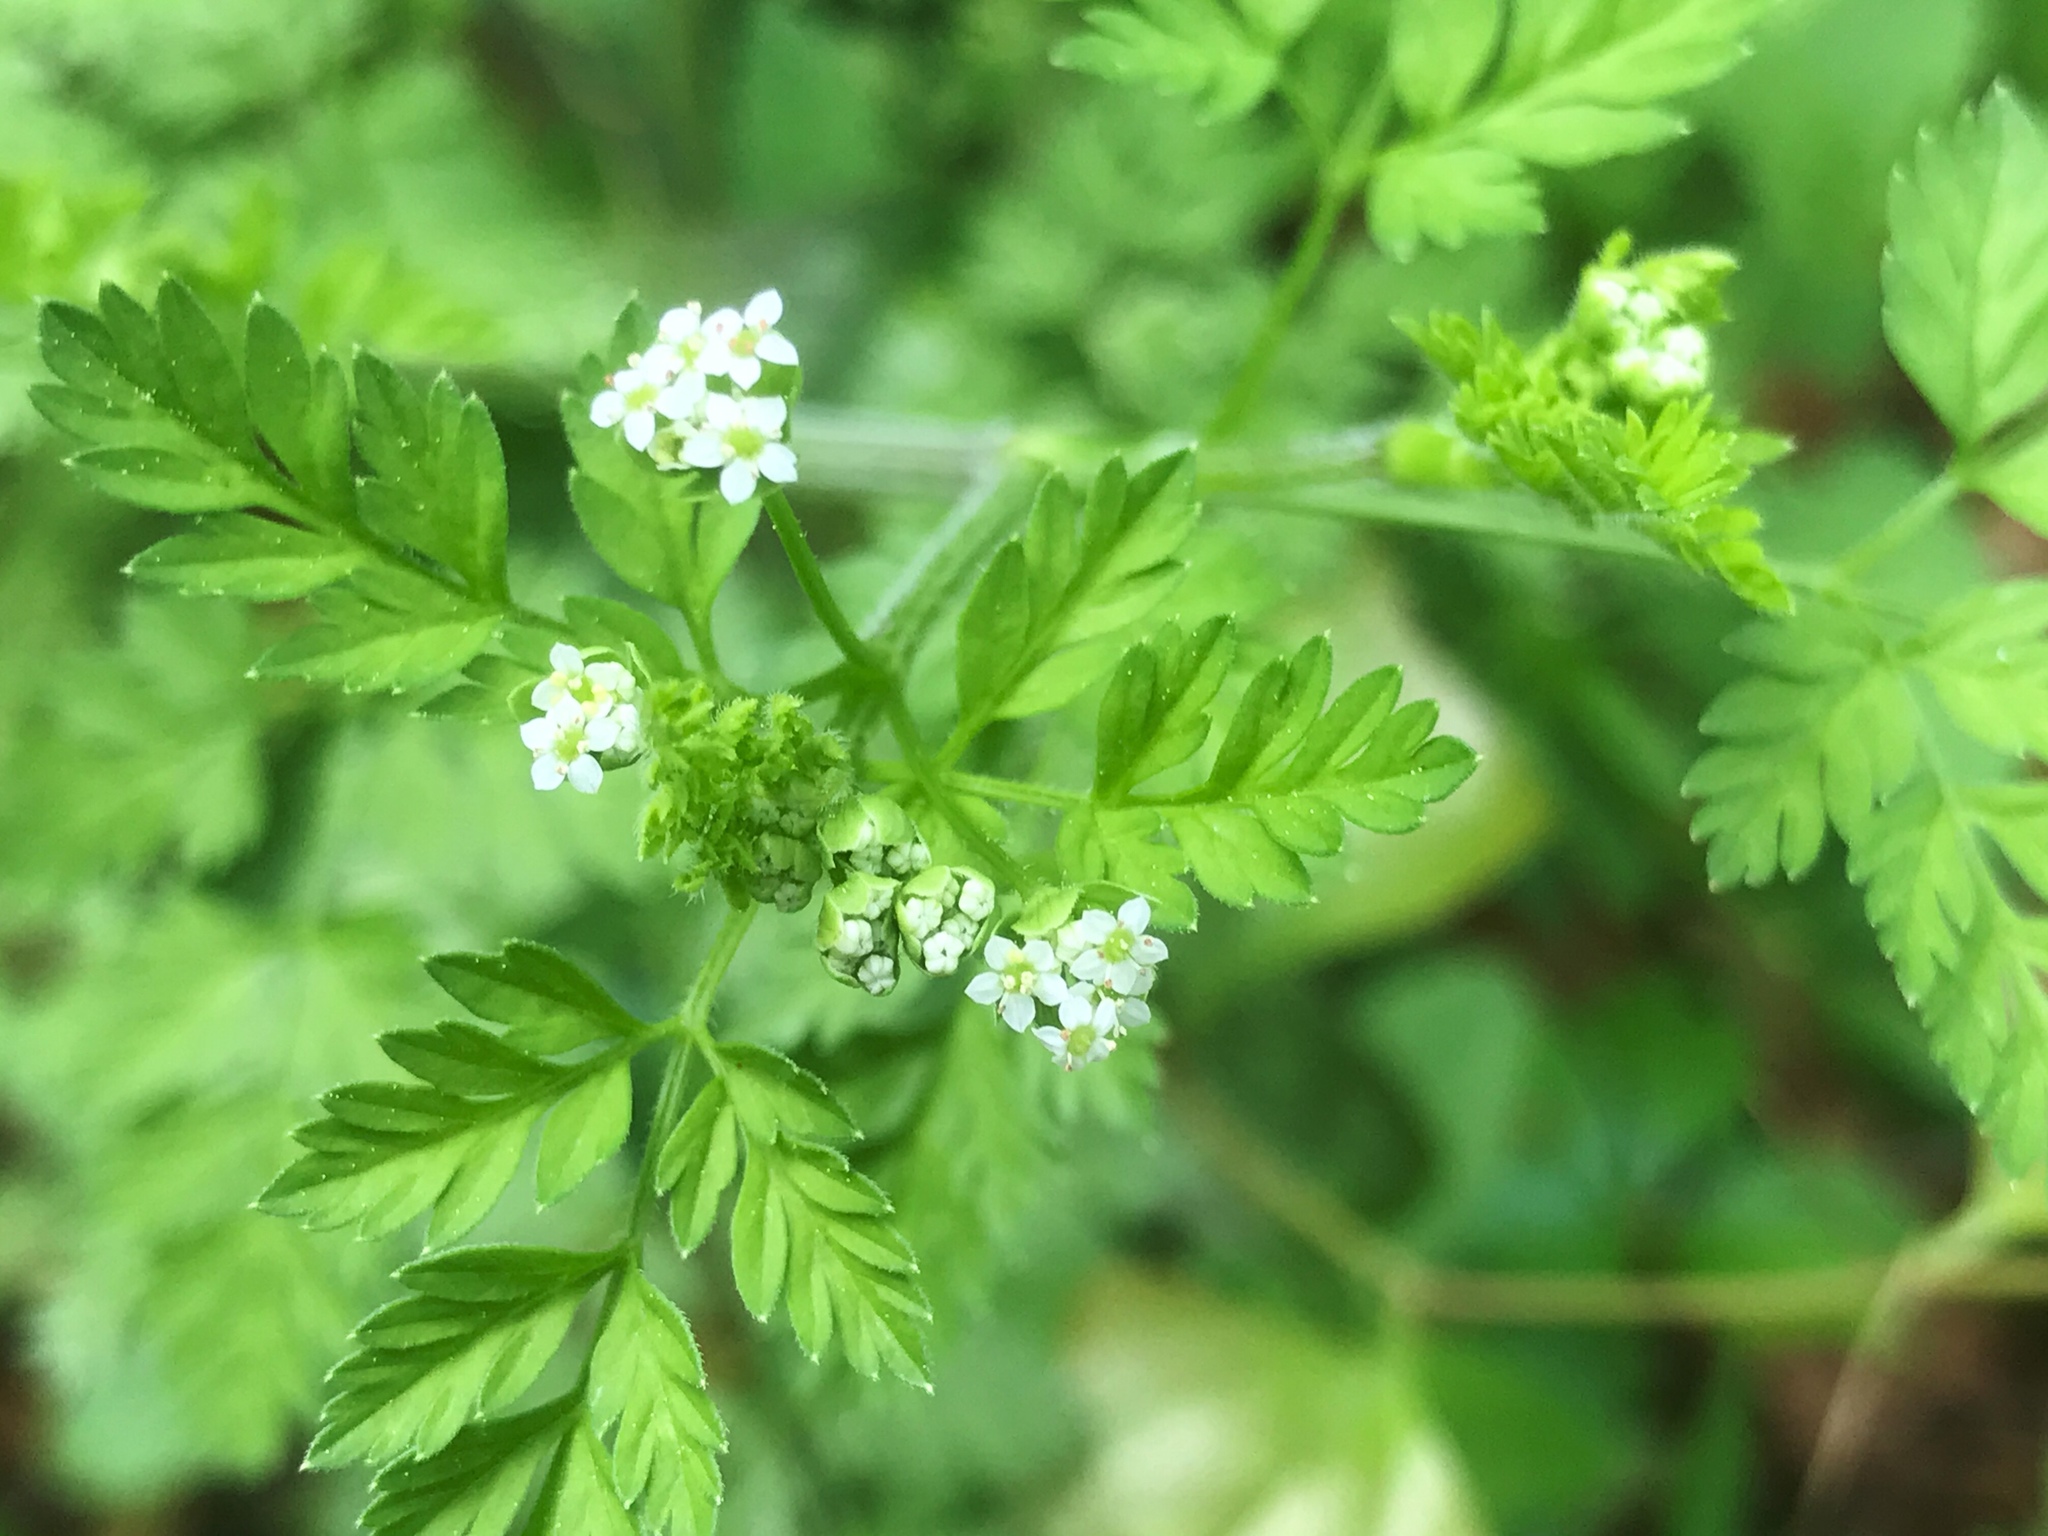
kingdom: Plantae
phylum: Tracheophyta
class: Magnoliopsida
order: Apiales
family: Apiaceae
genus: Chaerophyllum
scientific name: Chaerophyllum tainturieri
